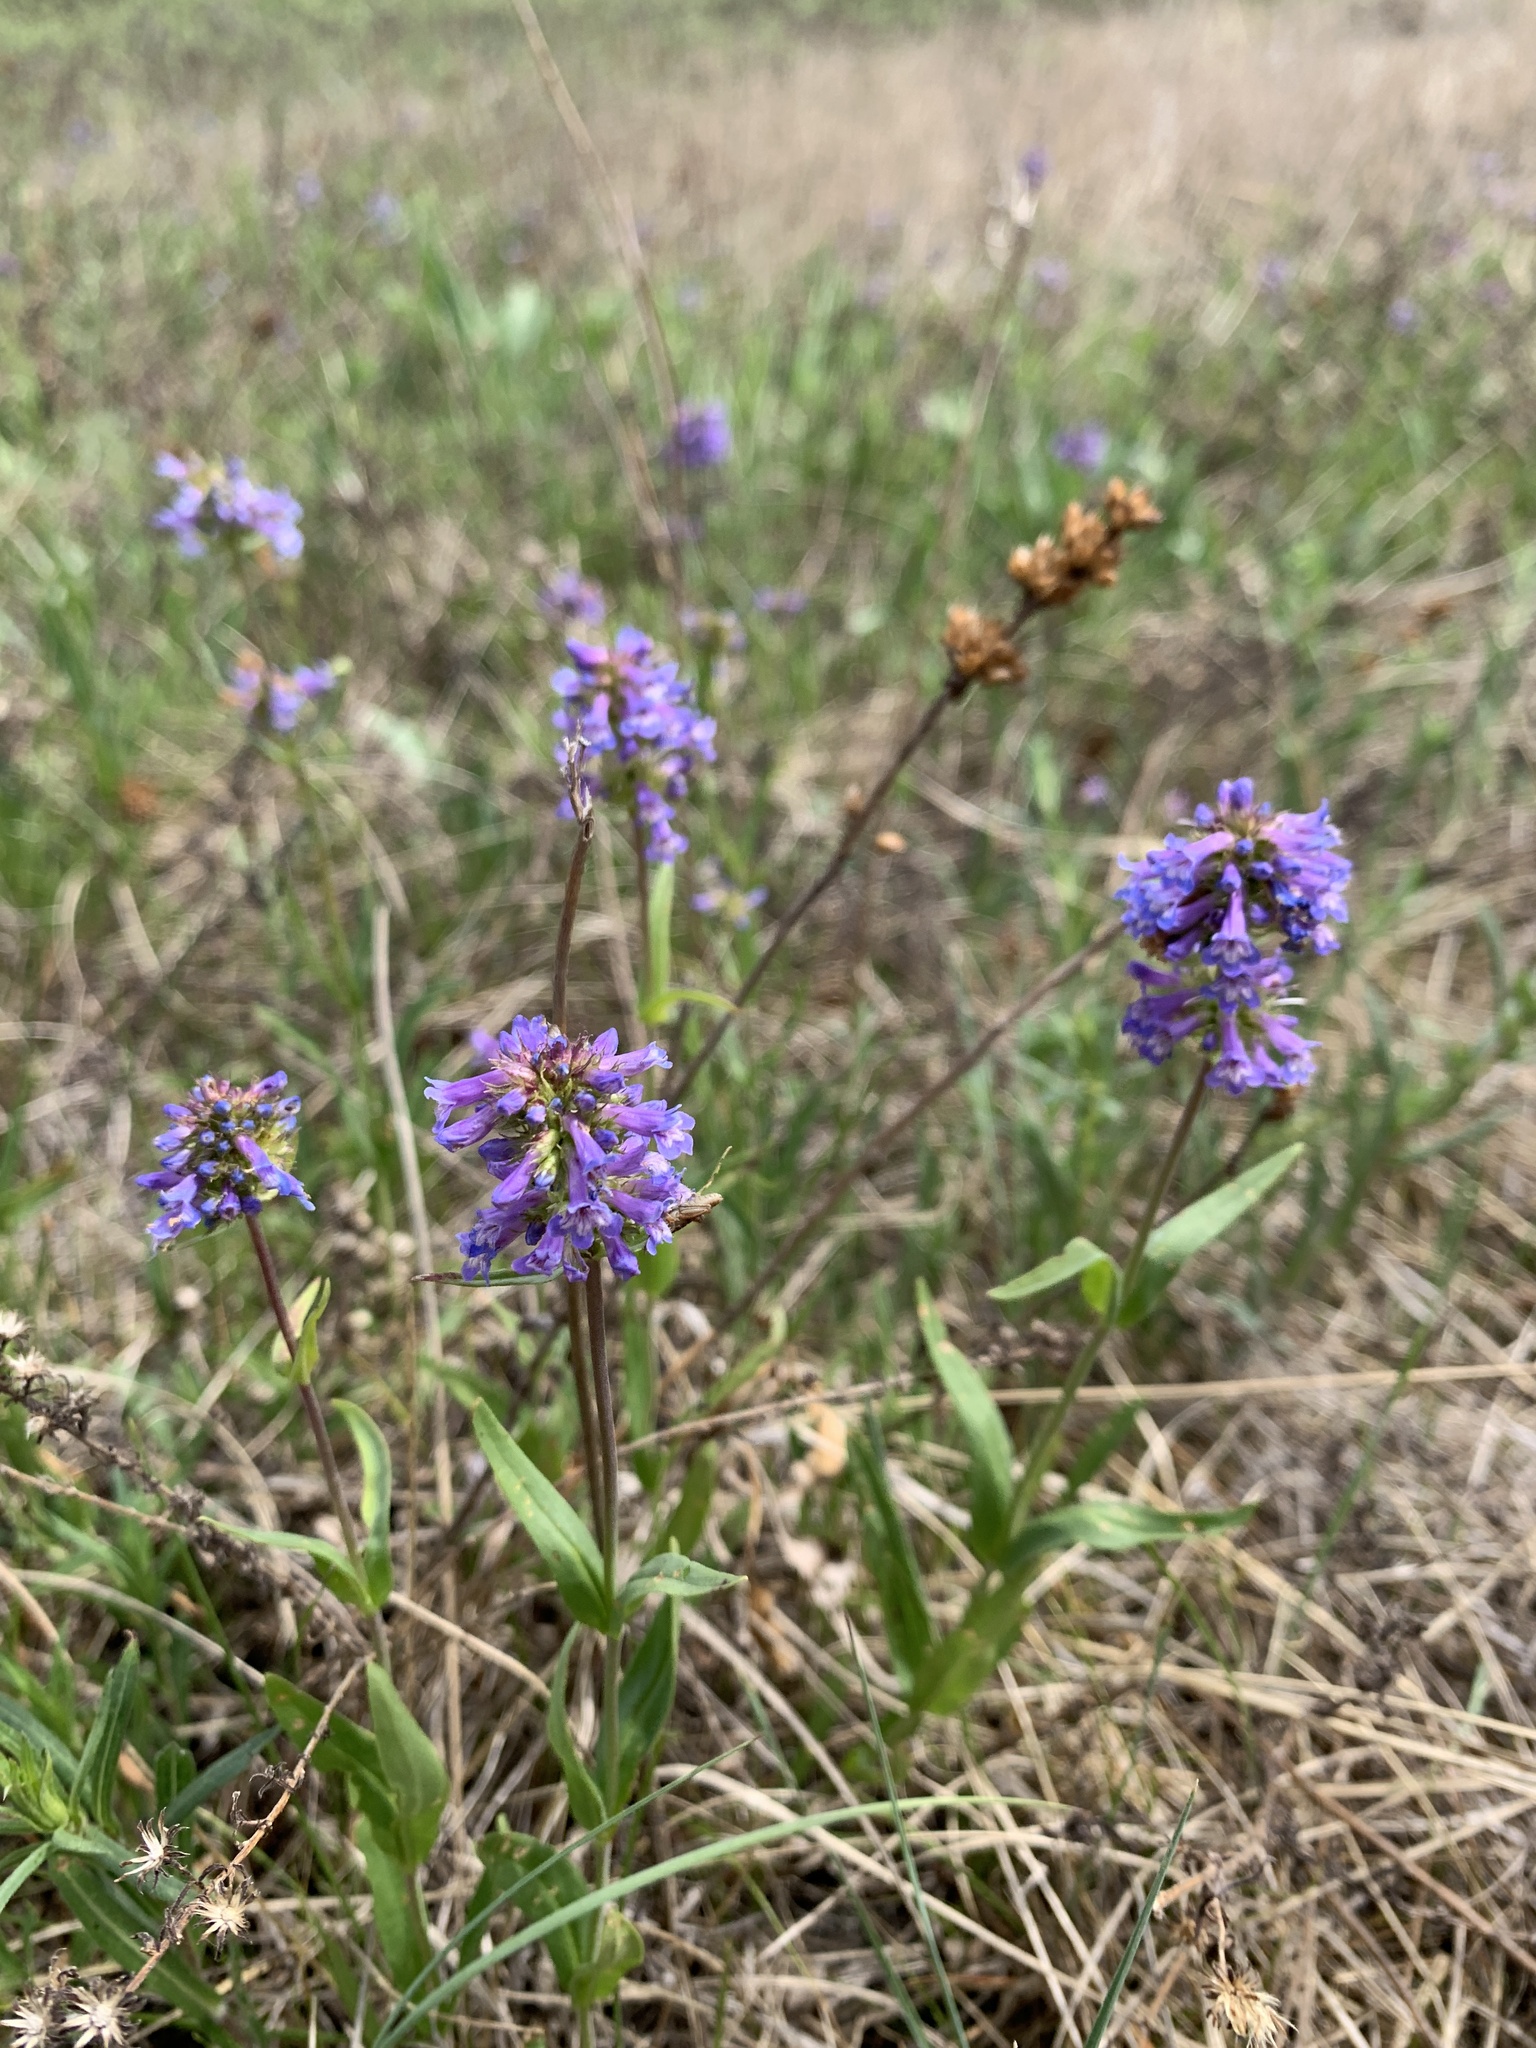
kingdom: Plantae
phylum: Tracheophyta
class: Magnoliopsida
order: Lamiales
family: Plantaginaceae
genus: Penstemon
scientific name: Penstemon procerus
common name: Small-flower penstemon
